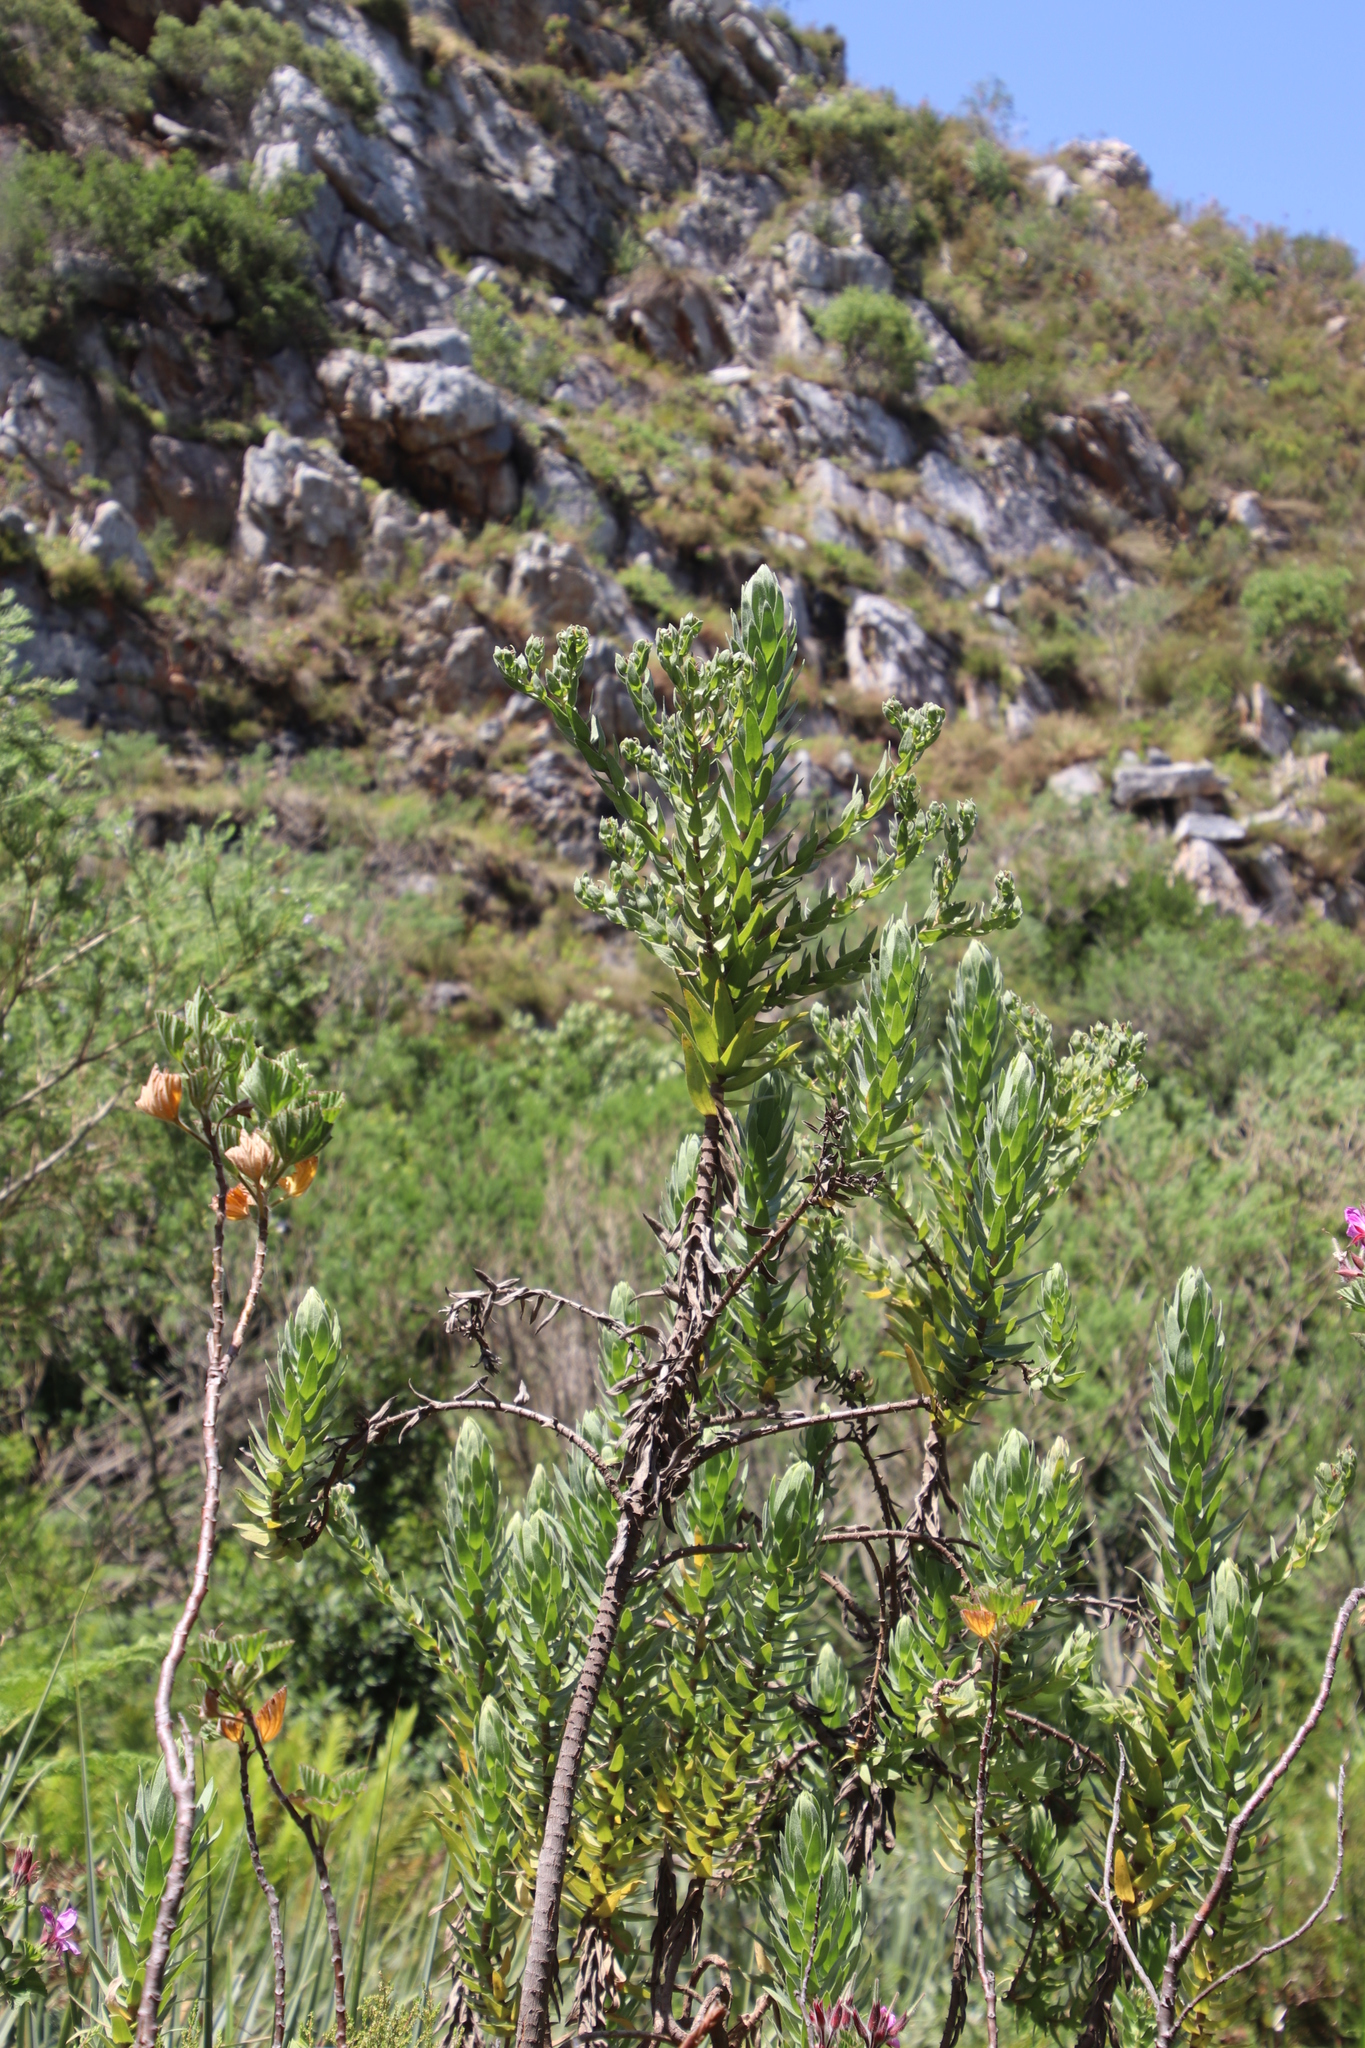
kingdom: Plantae
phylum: Tracheophyta
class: Magnoliopsida
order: Asterales
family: Asteraceae
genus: Osmitopsis
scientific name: Osmitopsis asteriscoides
